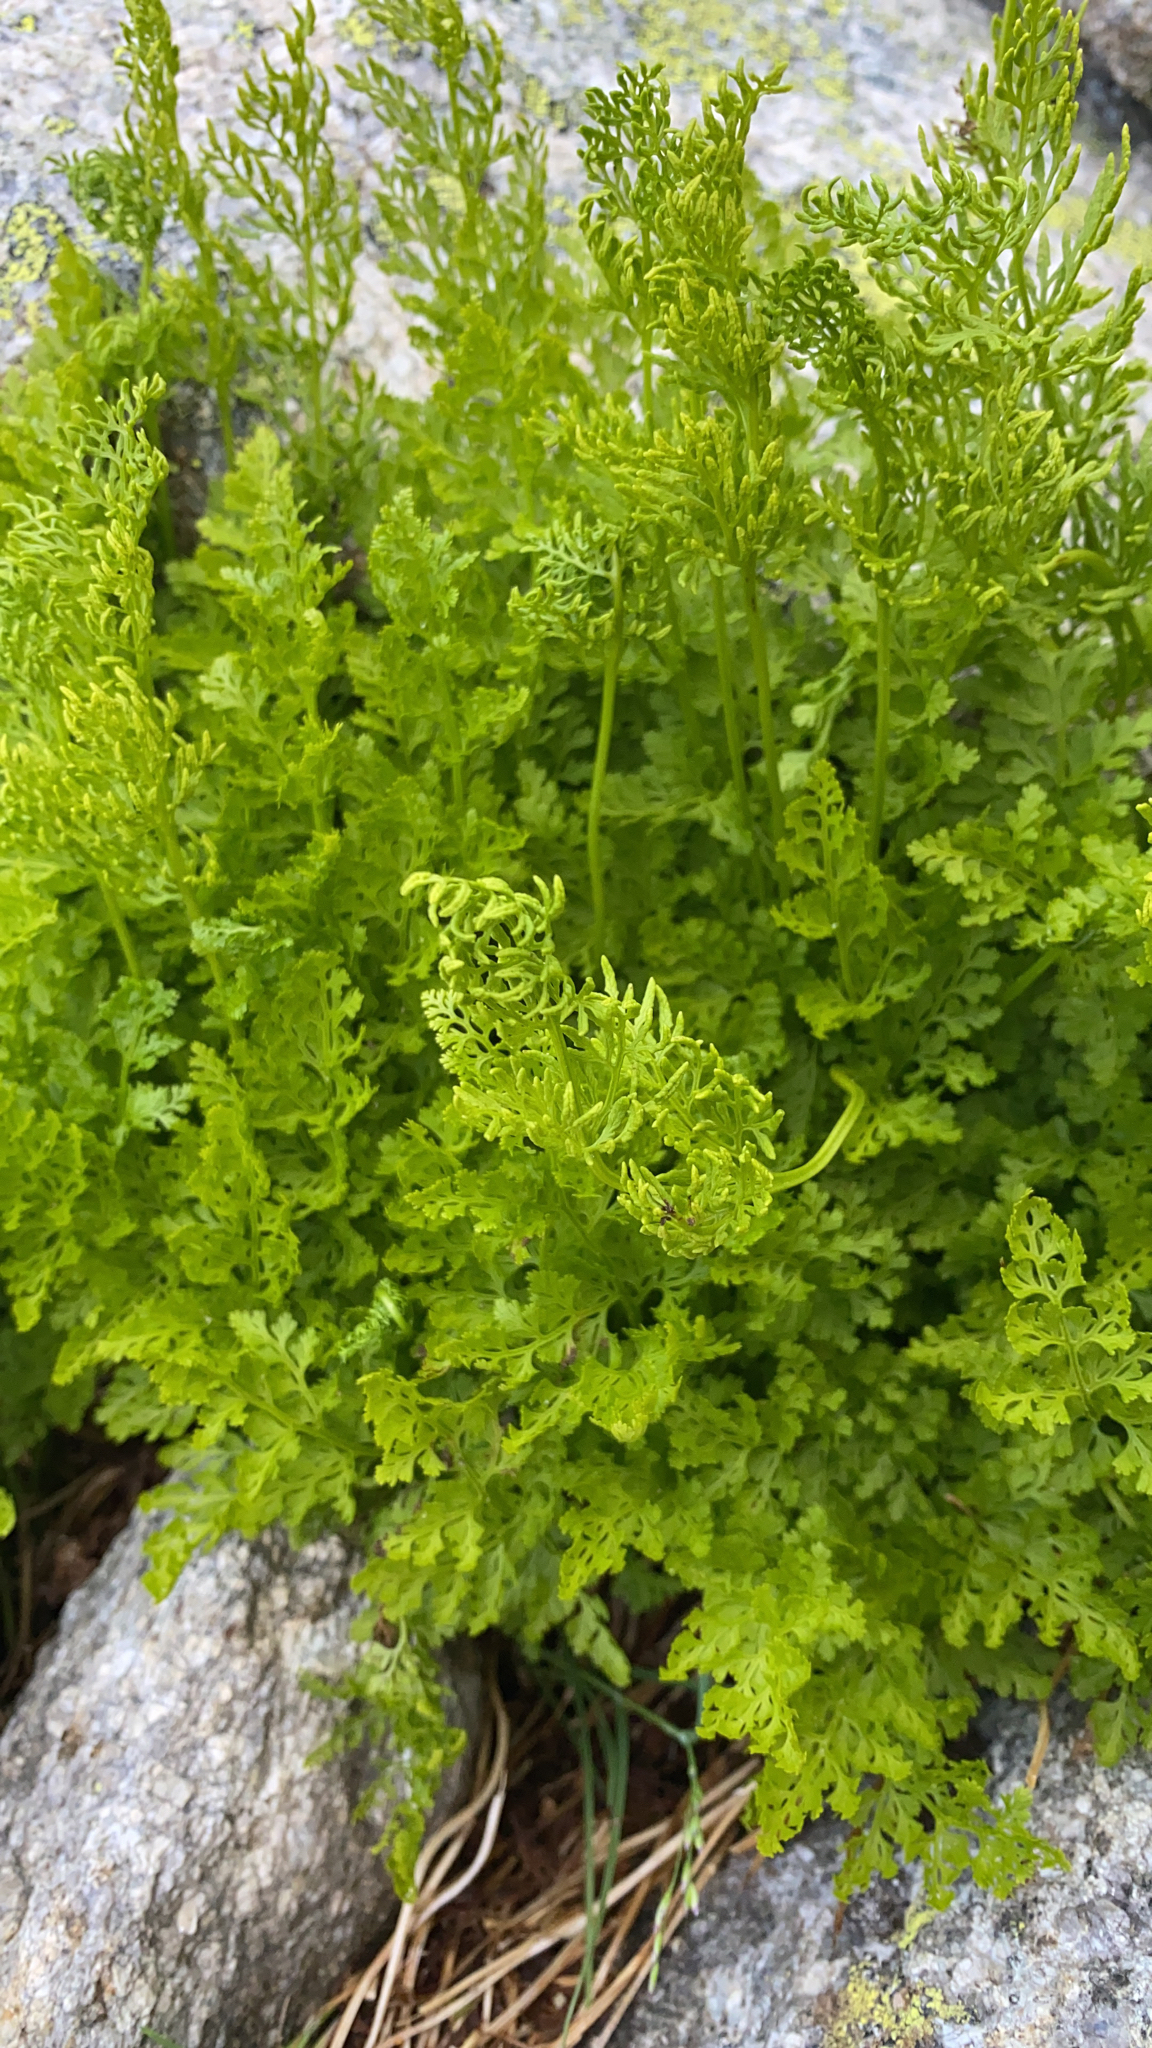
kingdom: Plantae
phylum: Tracheophyta
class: Polypodiopsida
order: Polypodiales
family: Pteridaceae
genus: Cryptogramma
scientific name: Cryptogramma crispa
